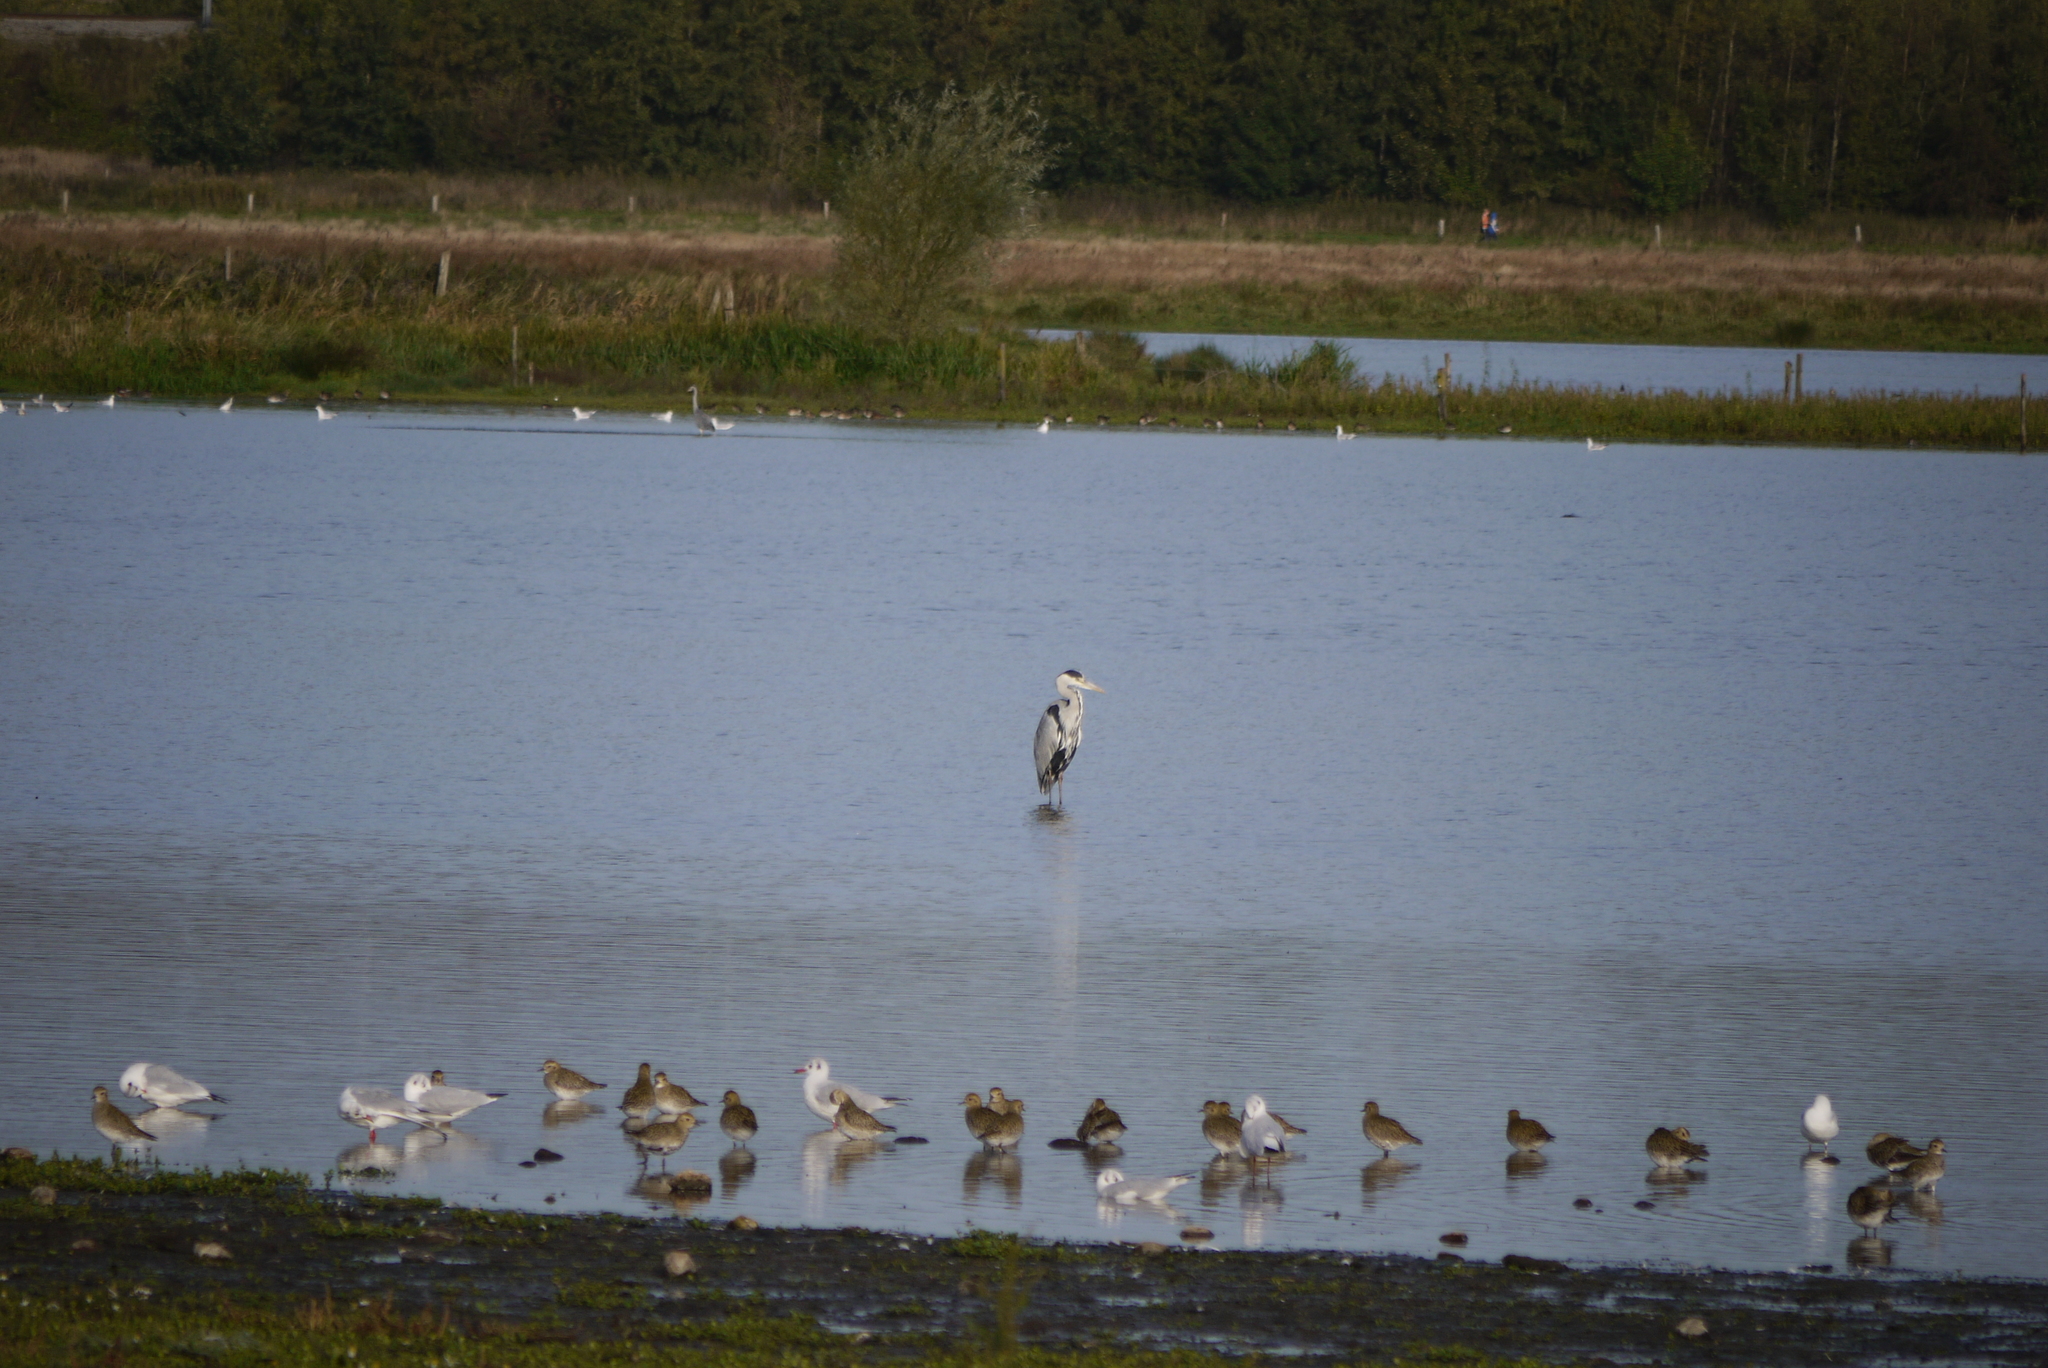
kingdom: Animalia
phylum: Chordata
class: Aves
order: Pelecaniformes
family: Ardeidae
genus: Ardea
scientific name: Ardea cinerea
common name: Grey heron
